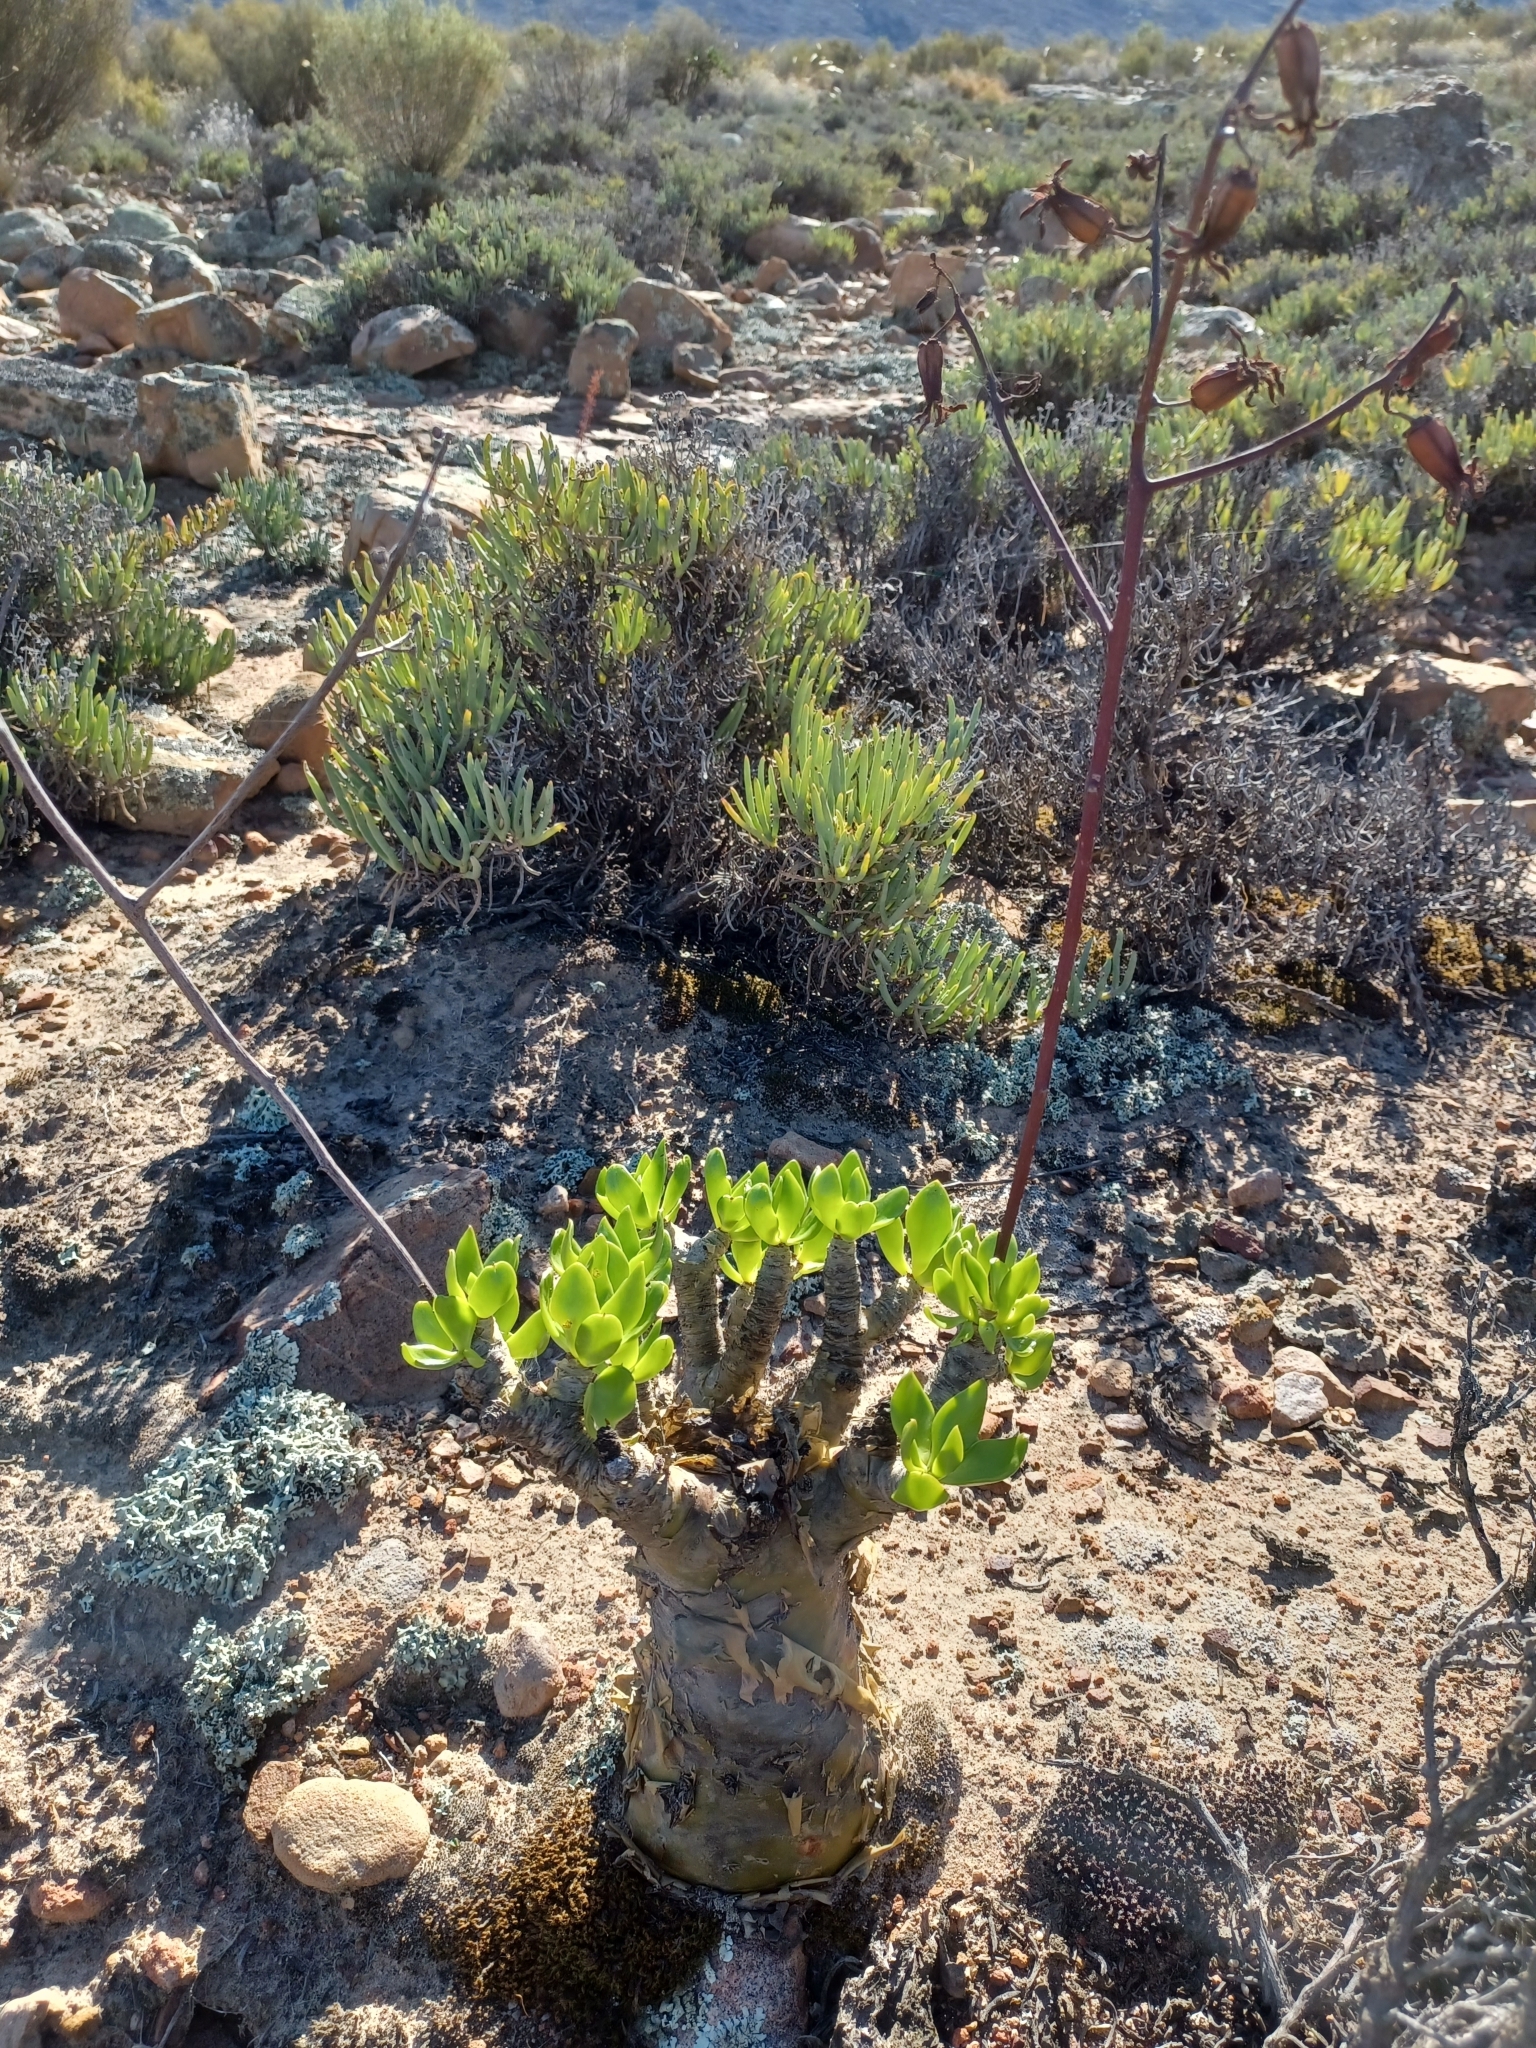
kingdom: Plantae
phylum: Tracheophyta
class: Magnoliopsida
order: Saxifragales
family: Crassulaceae
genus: Tylecodon
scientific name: Tylecodon paniculatus
